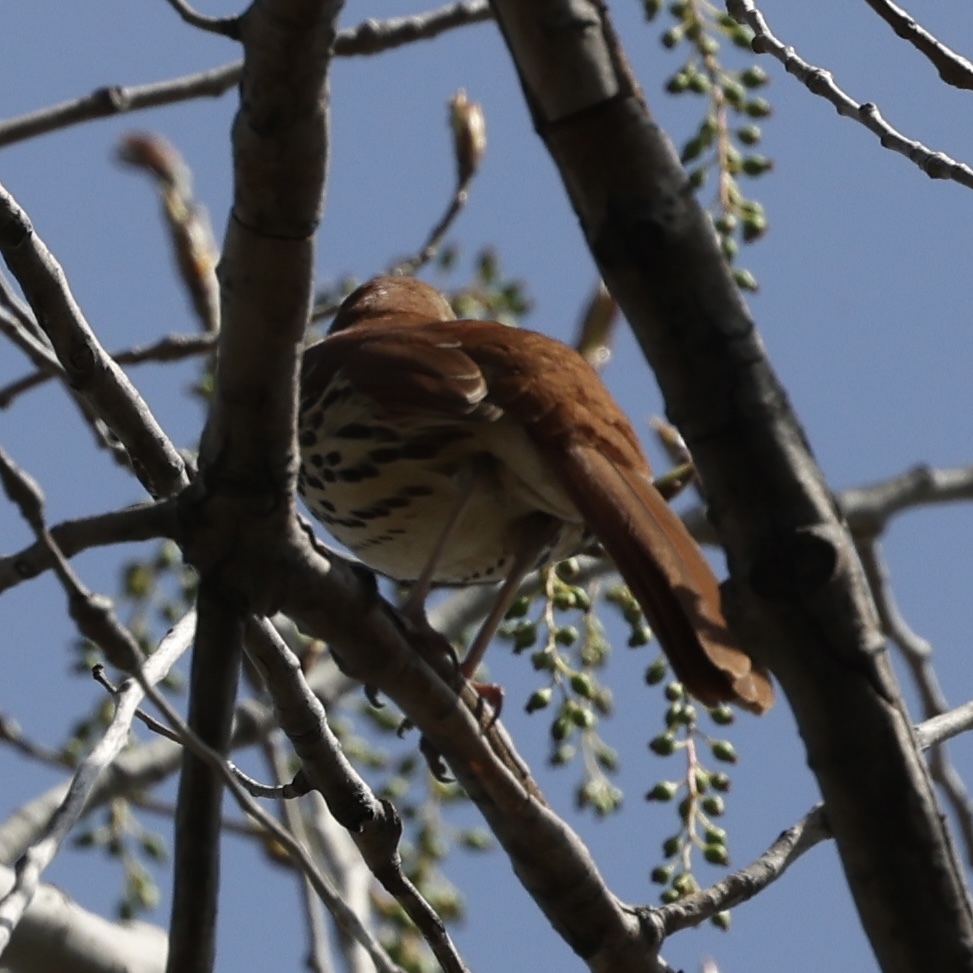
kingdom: Animalia
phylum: Chordata
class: Aves
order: Passeriformes
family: Mimidae
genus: Toxostoma
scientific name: Toxostoma rufum
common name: Brown thrasher
